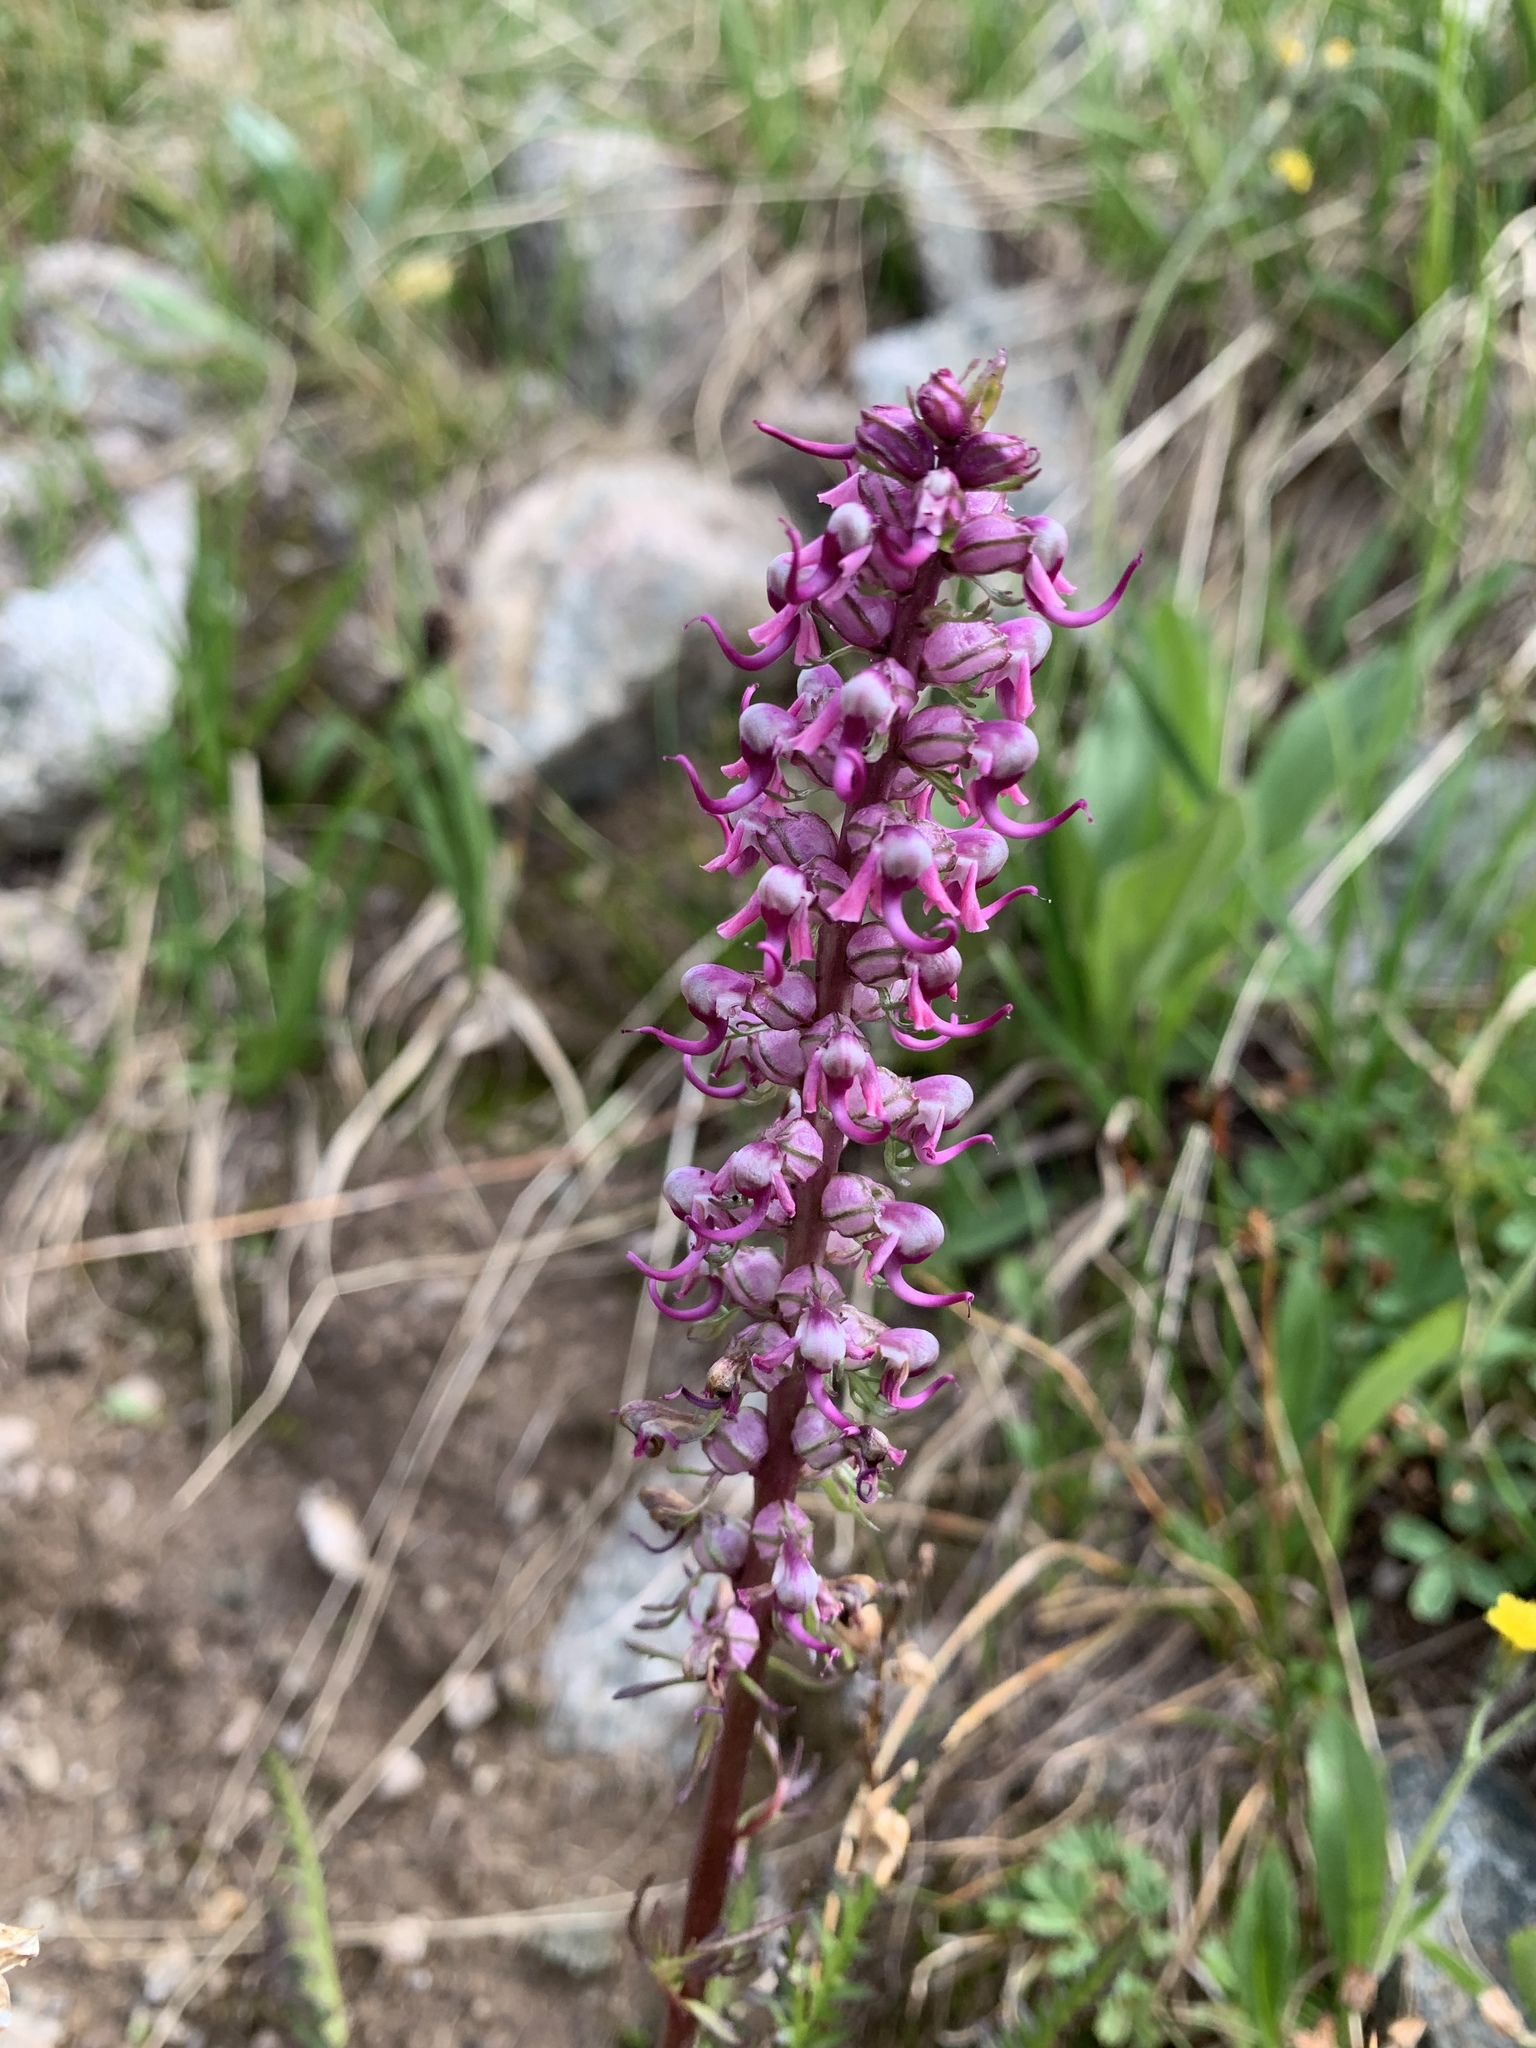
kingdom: Plantae
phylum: Tracheophyta
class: Magnoliopsida
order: Lamiales
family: Orobanchaceae
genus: Pedicularis
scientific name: Pedicularis groenlandica
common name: Elephant's-head
